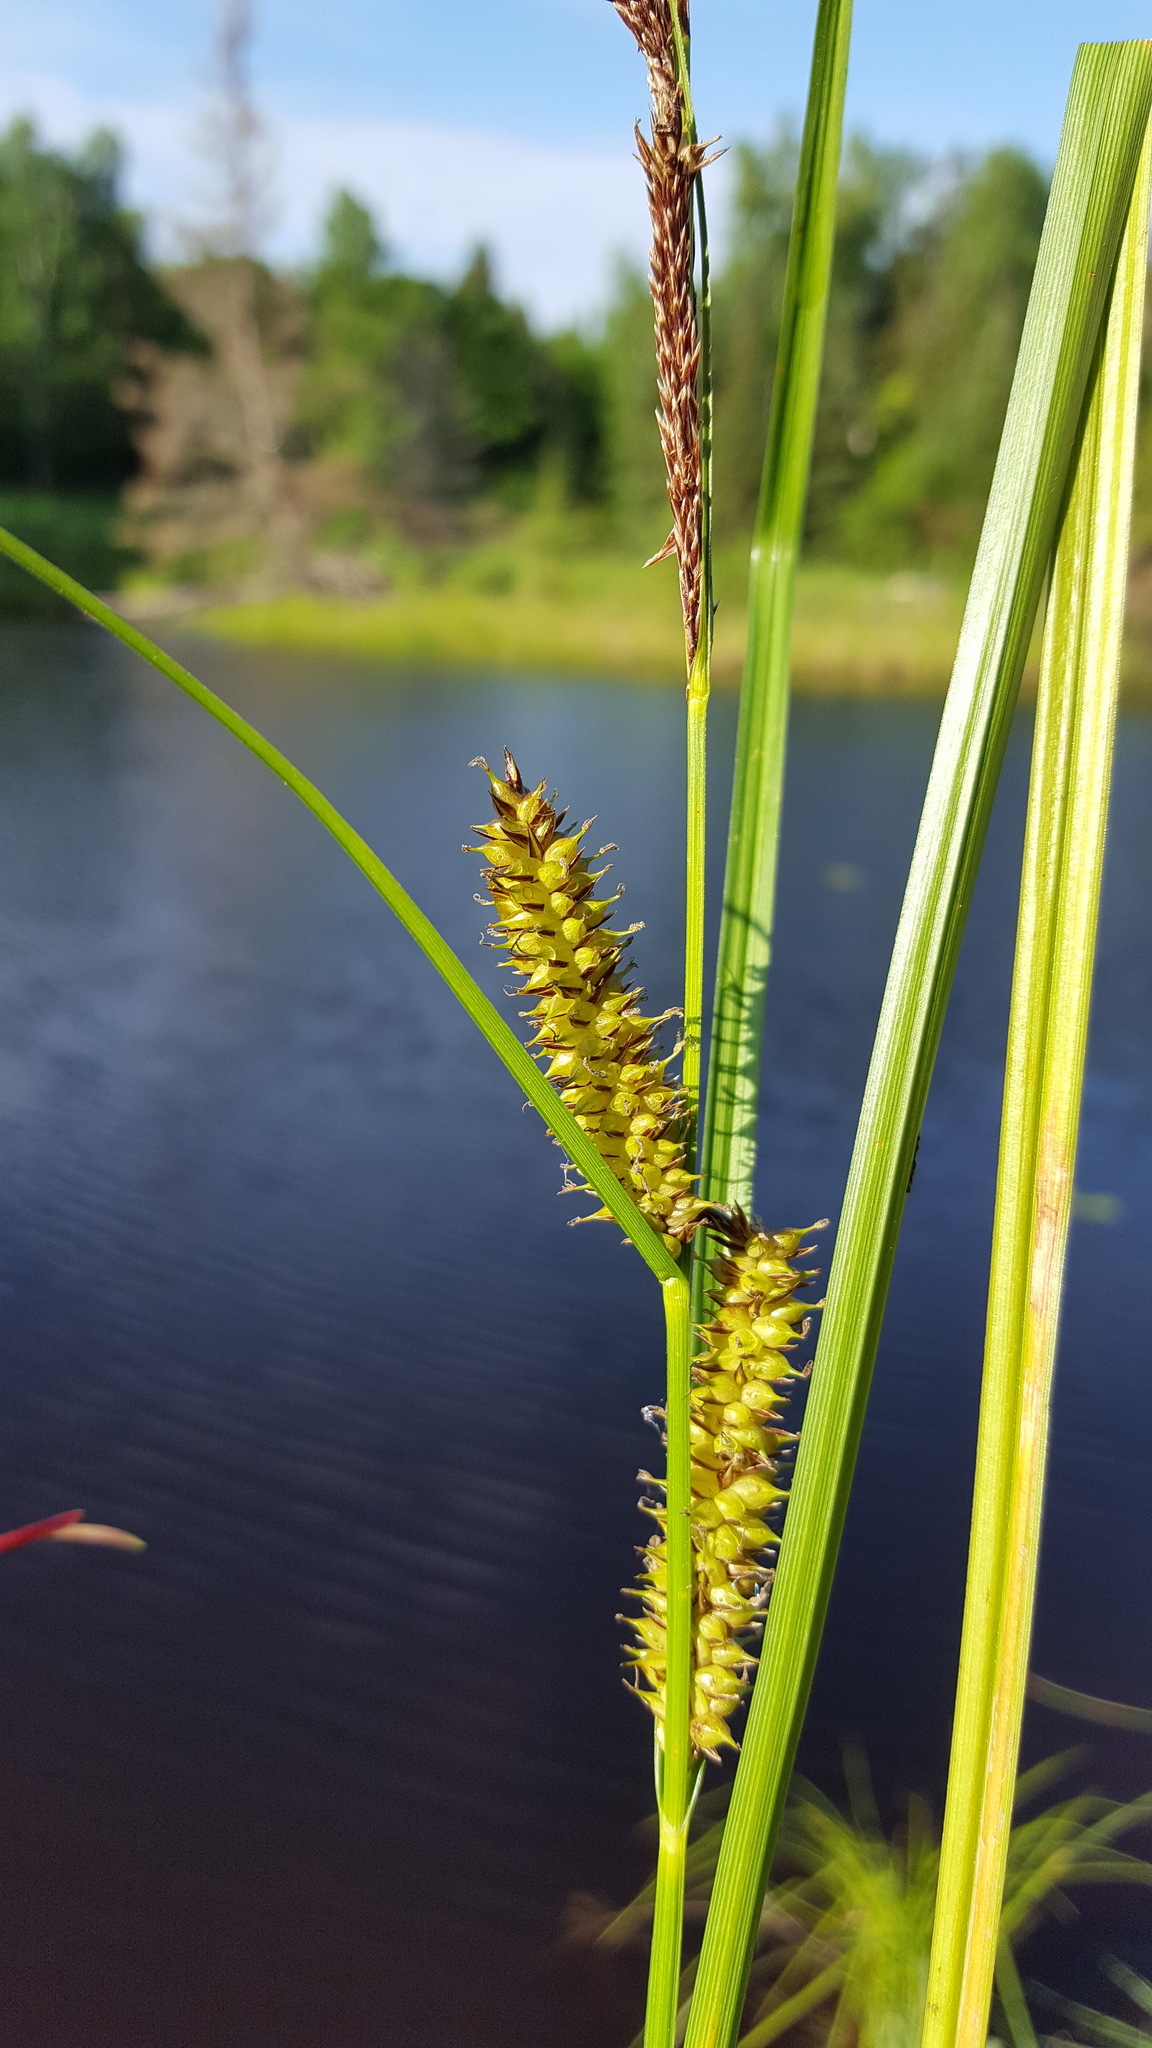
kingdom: Plantae
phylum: Tracheophyta
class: Liliopsida
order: Poales
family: Cyperaceae
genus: Carex
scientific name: Carex utriculata
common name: Beaked sedge
